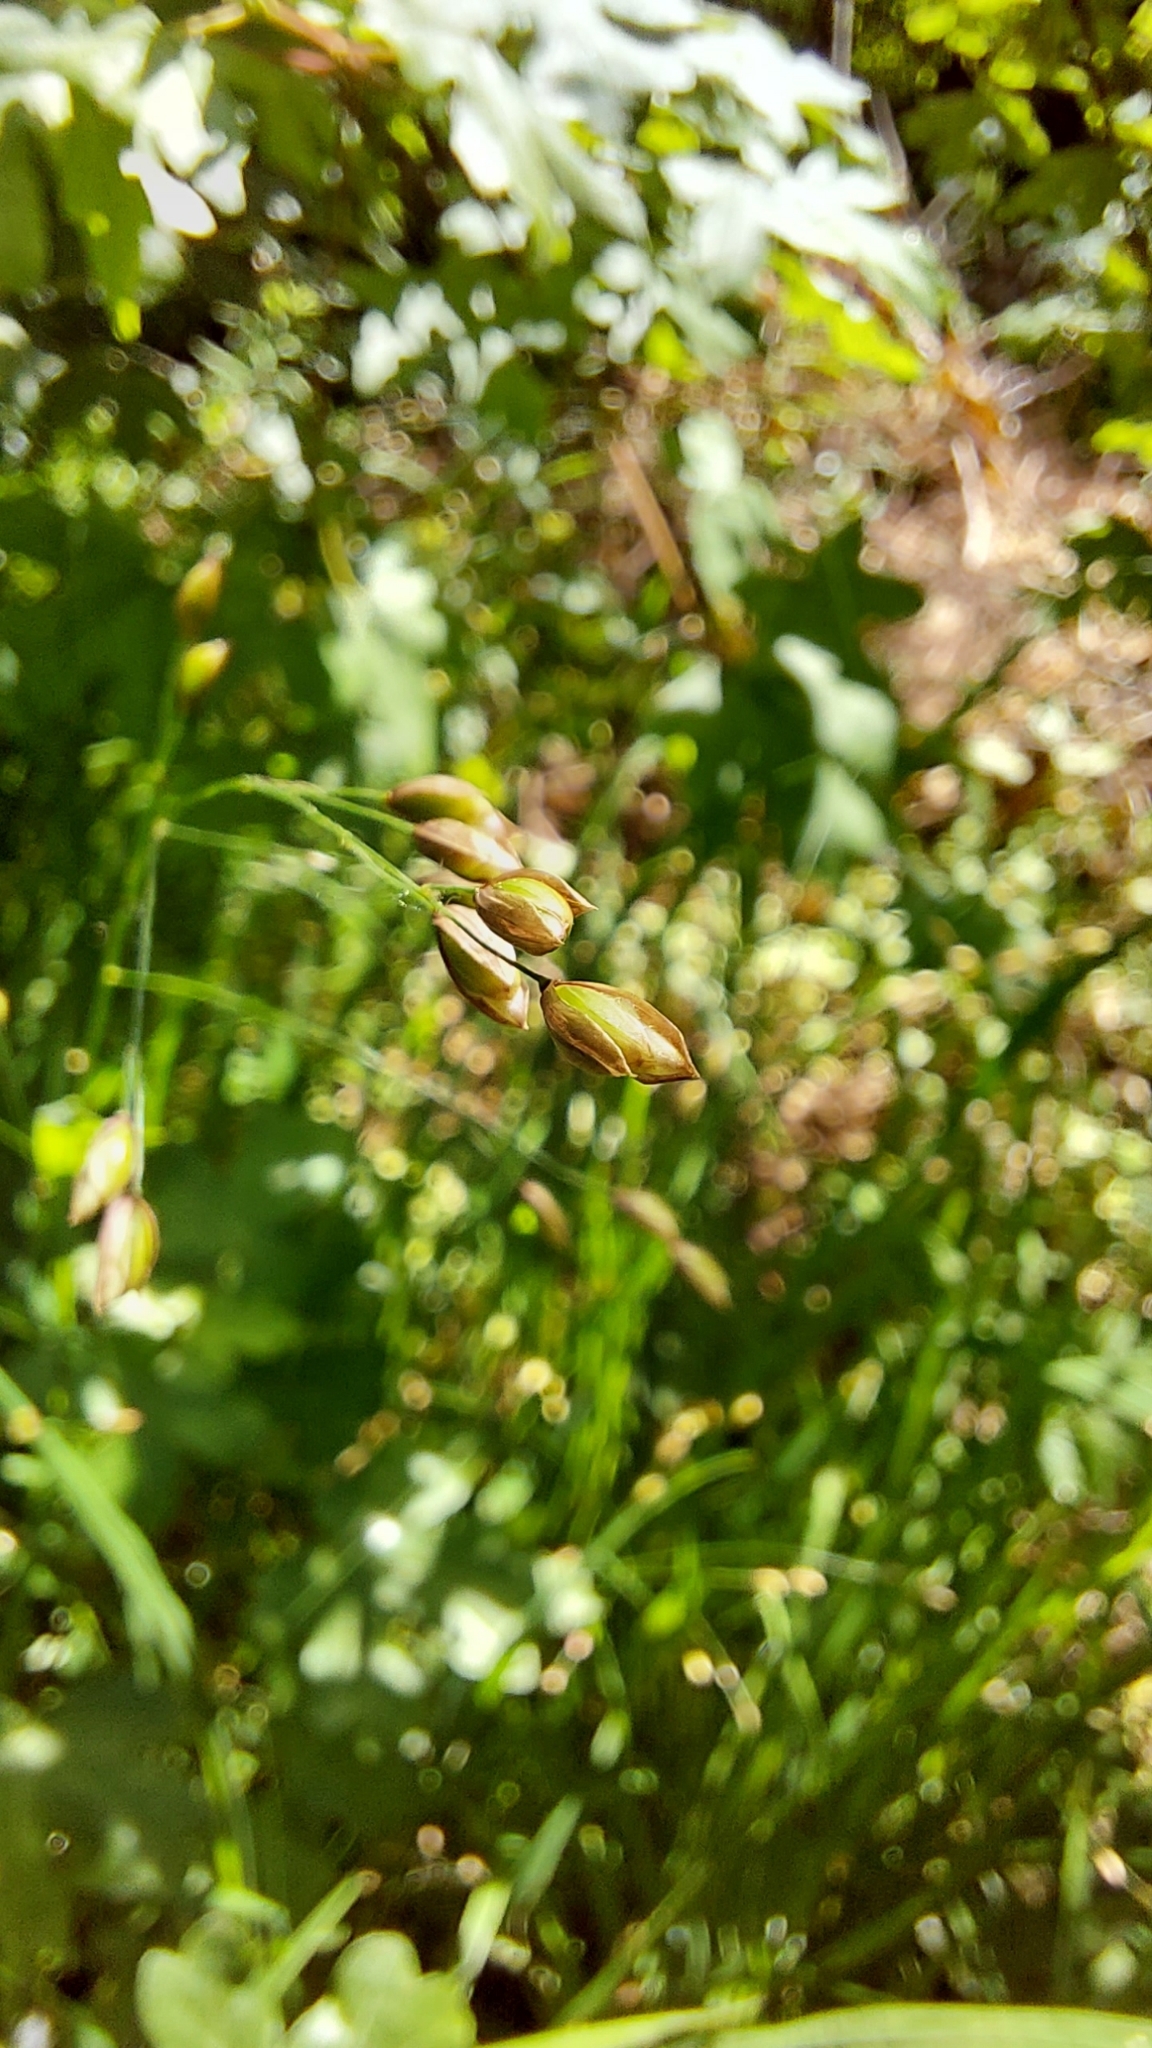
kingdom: Plantae
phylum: Tracheophyta
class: Liliopsida
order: Poales
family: Poaceae
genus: Melica
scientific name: Melica uniflora
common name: Wood melick
